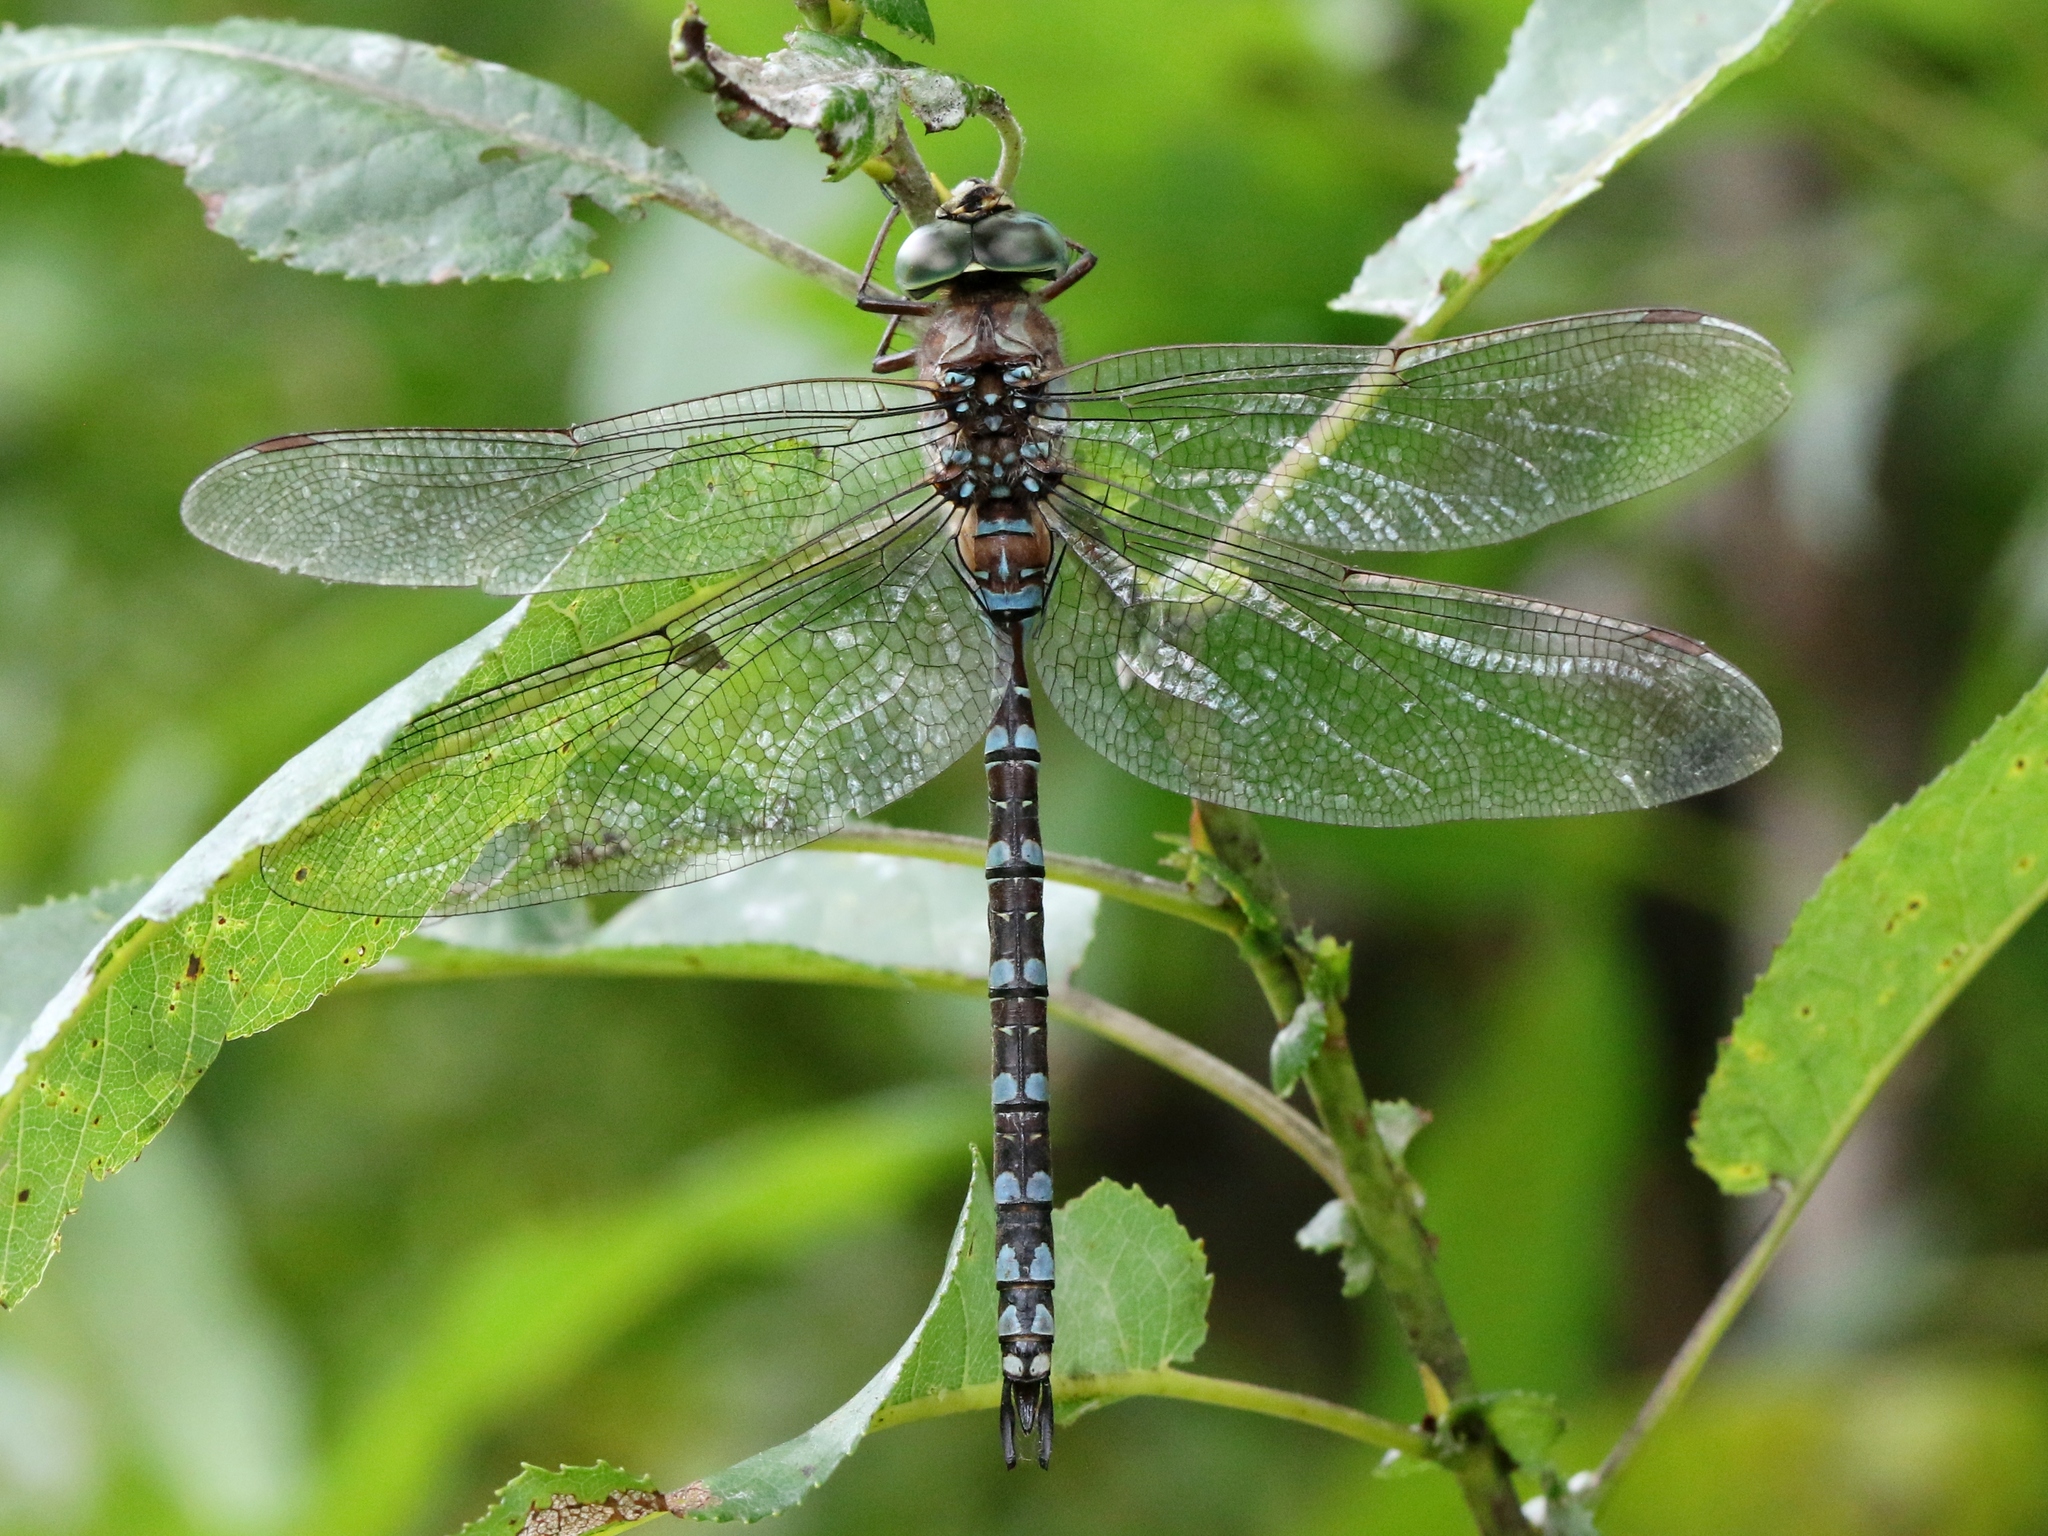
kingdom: Animalia
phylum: Arthropoda
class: Insecta
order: Odonata
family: Aeshnidae
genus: Aeshna
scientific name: Aeshna canadensis
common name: Canada darner
